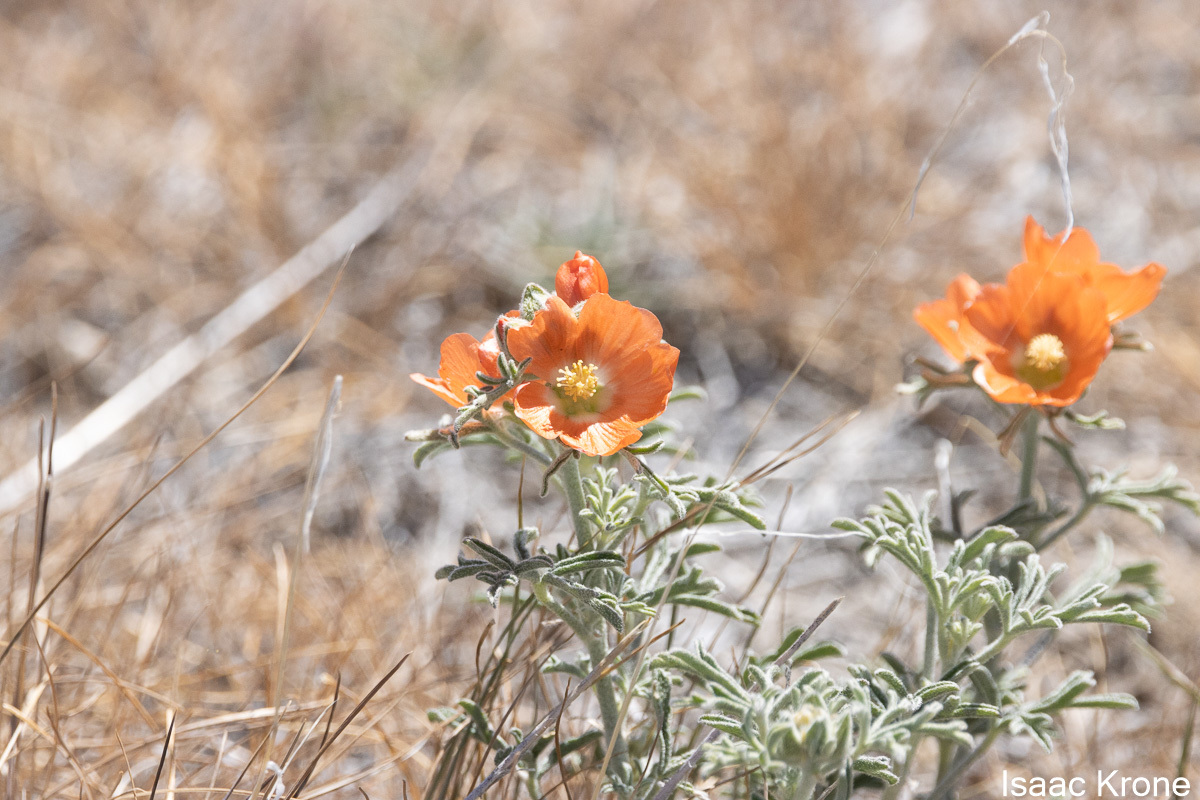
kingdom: Plantae
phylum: Tracheophyta
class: Magnoliopsida
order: Malvales
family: Malvaceae
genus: Sphaeralcea
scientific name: Sphaeralcea coccinea
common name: Moss-rose
